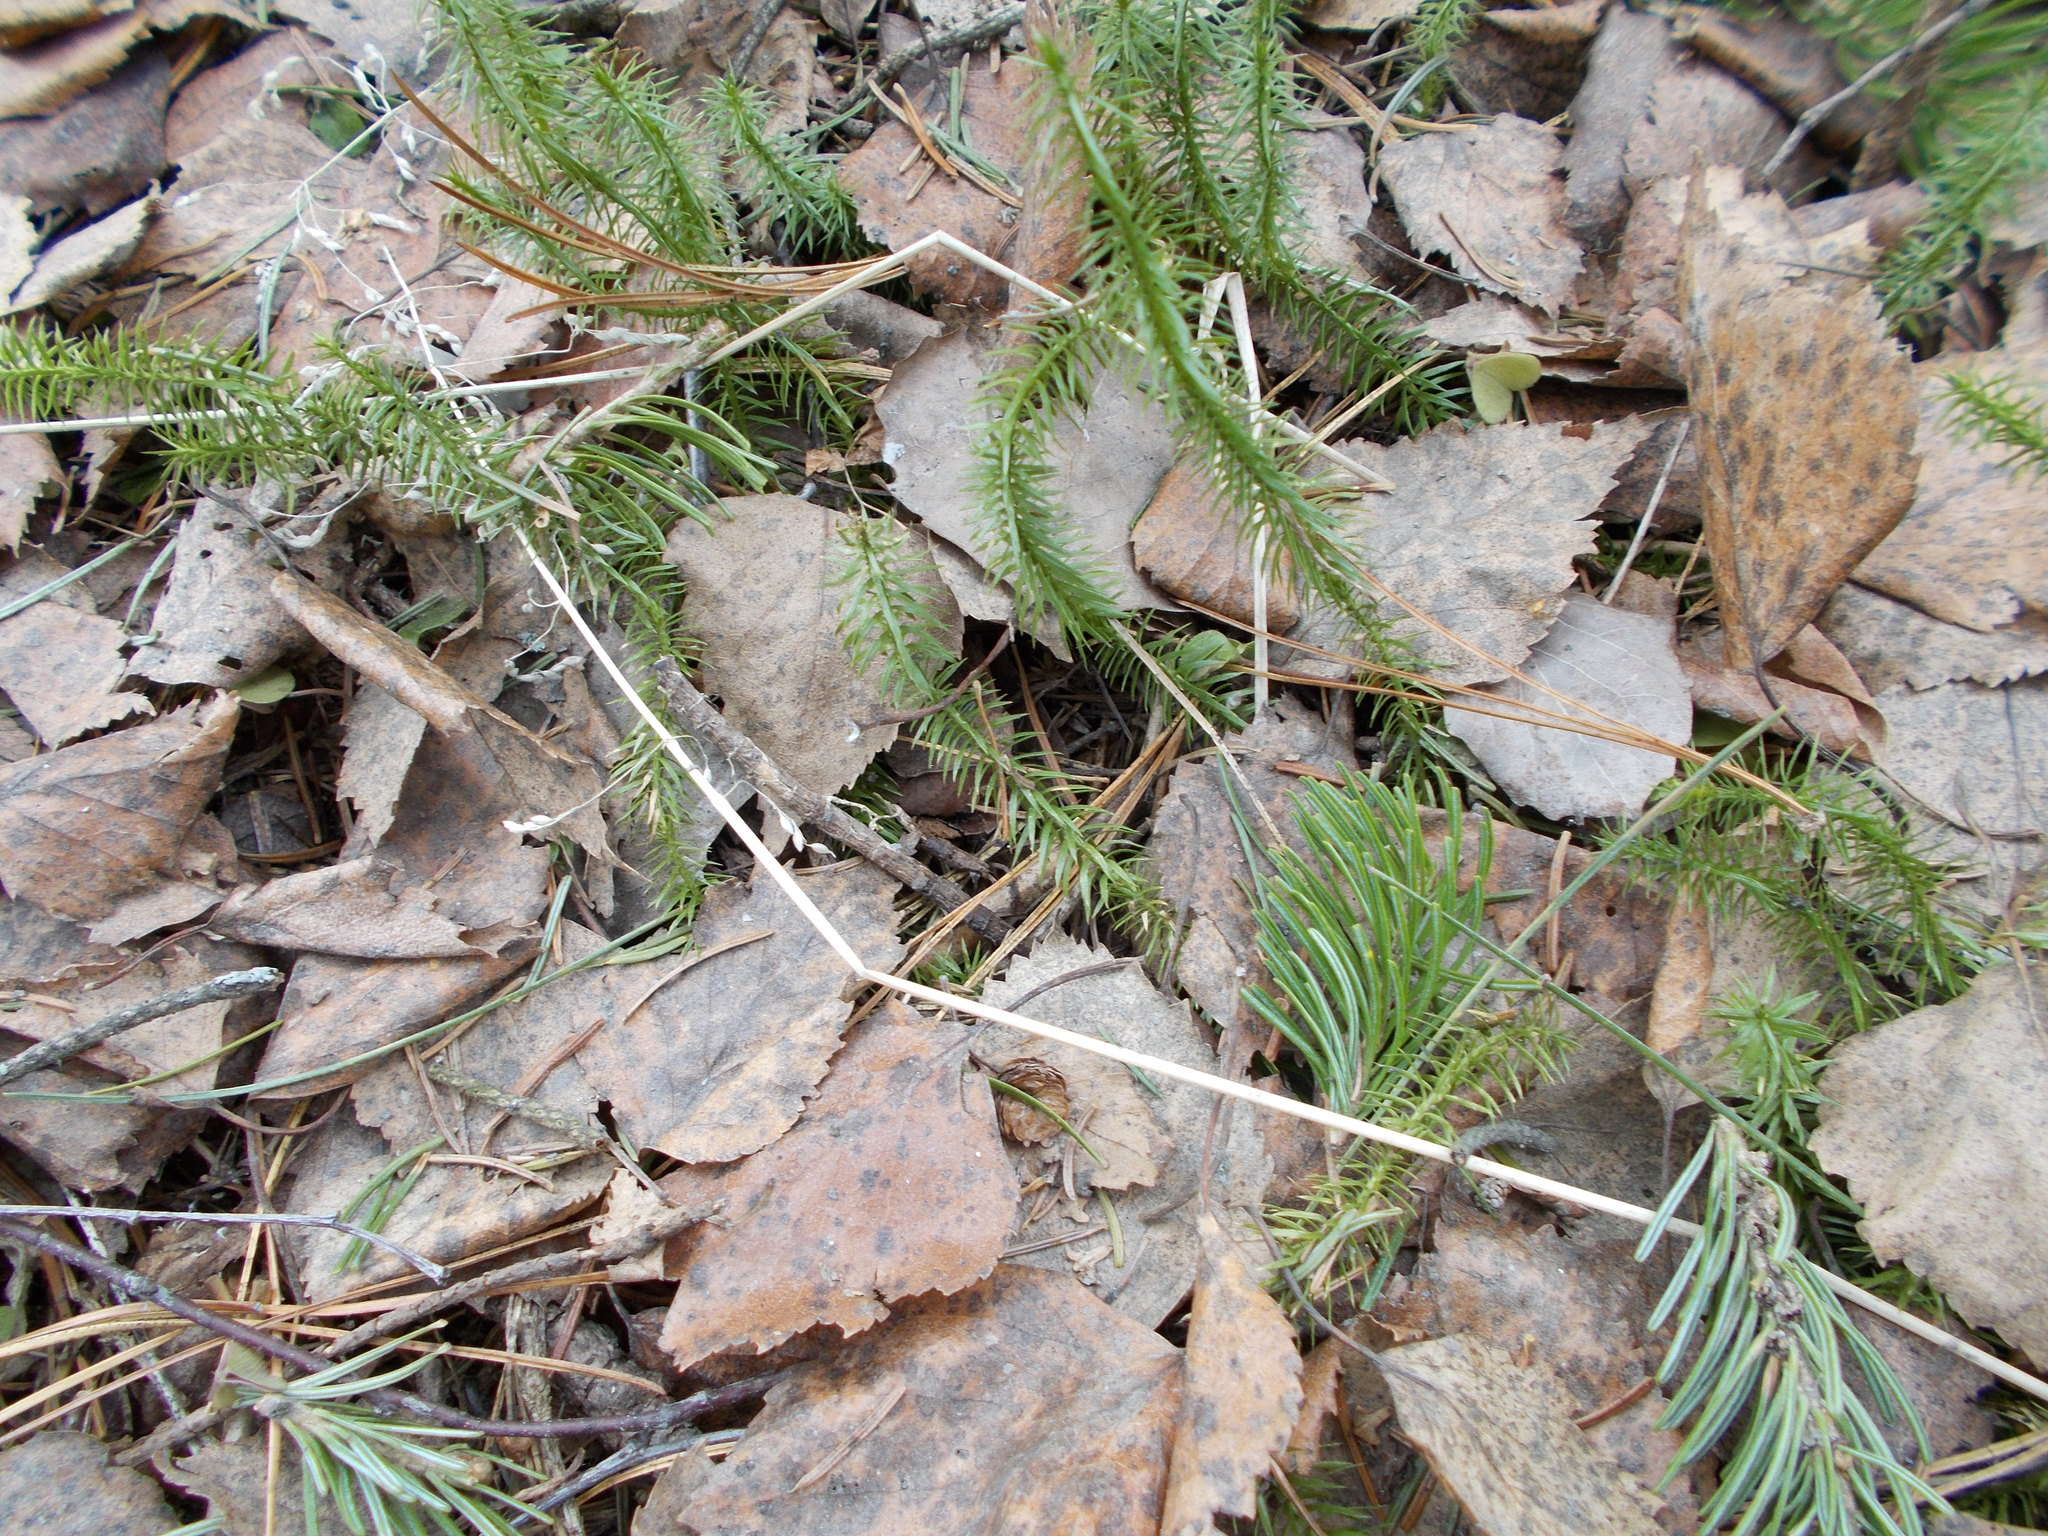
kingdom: Plantae
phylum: Tracheophyta
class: Lycopodiopsida
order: Lycopodiales
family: Lycopodiaceae
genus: Spinulum
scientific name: Spinulum annotinum
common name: Interrupted club-moss
